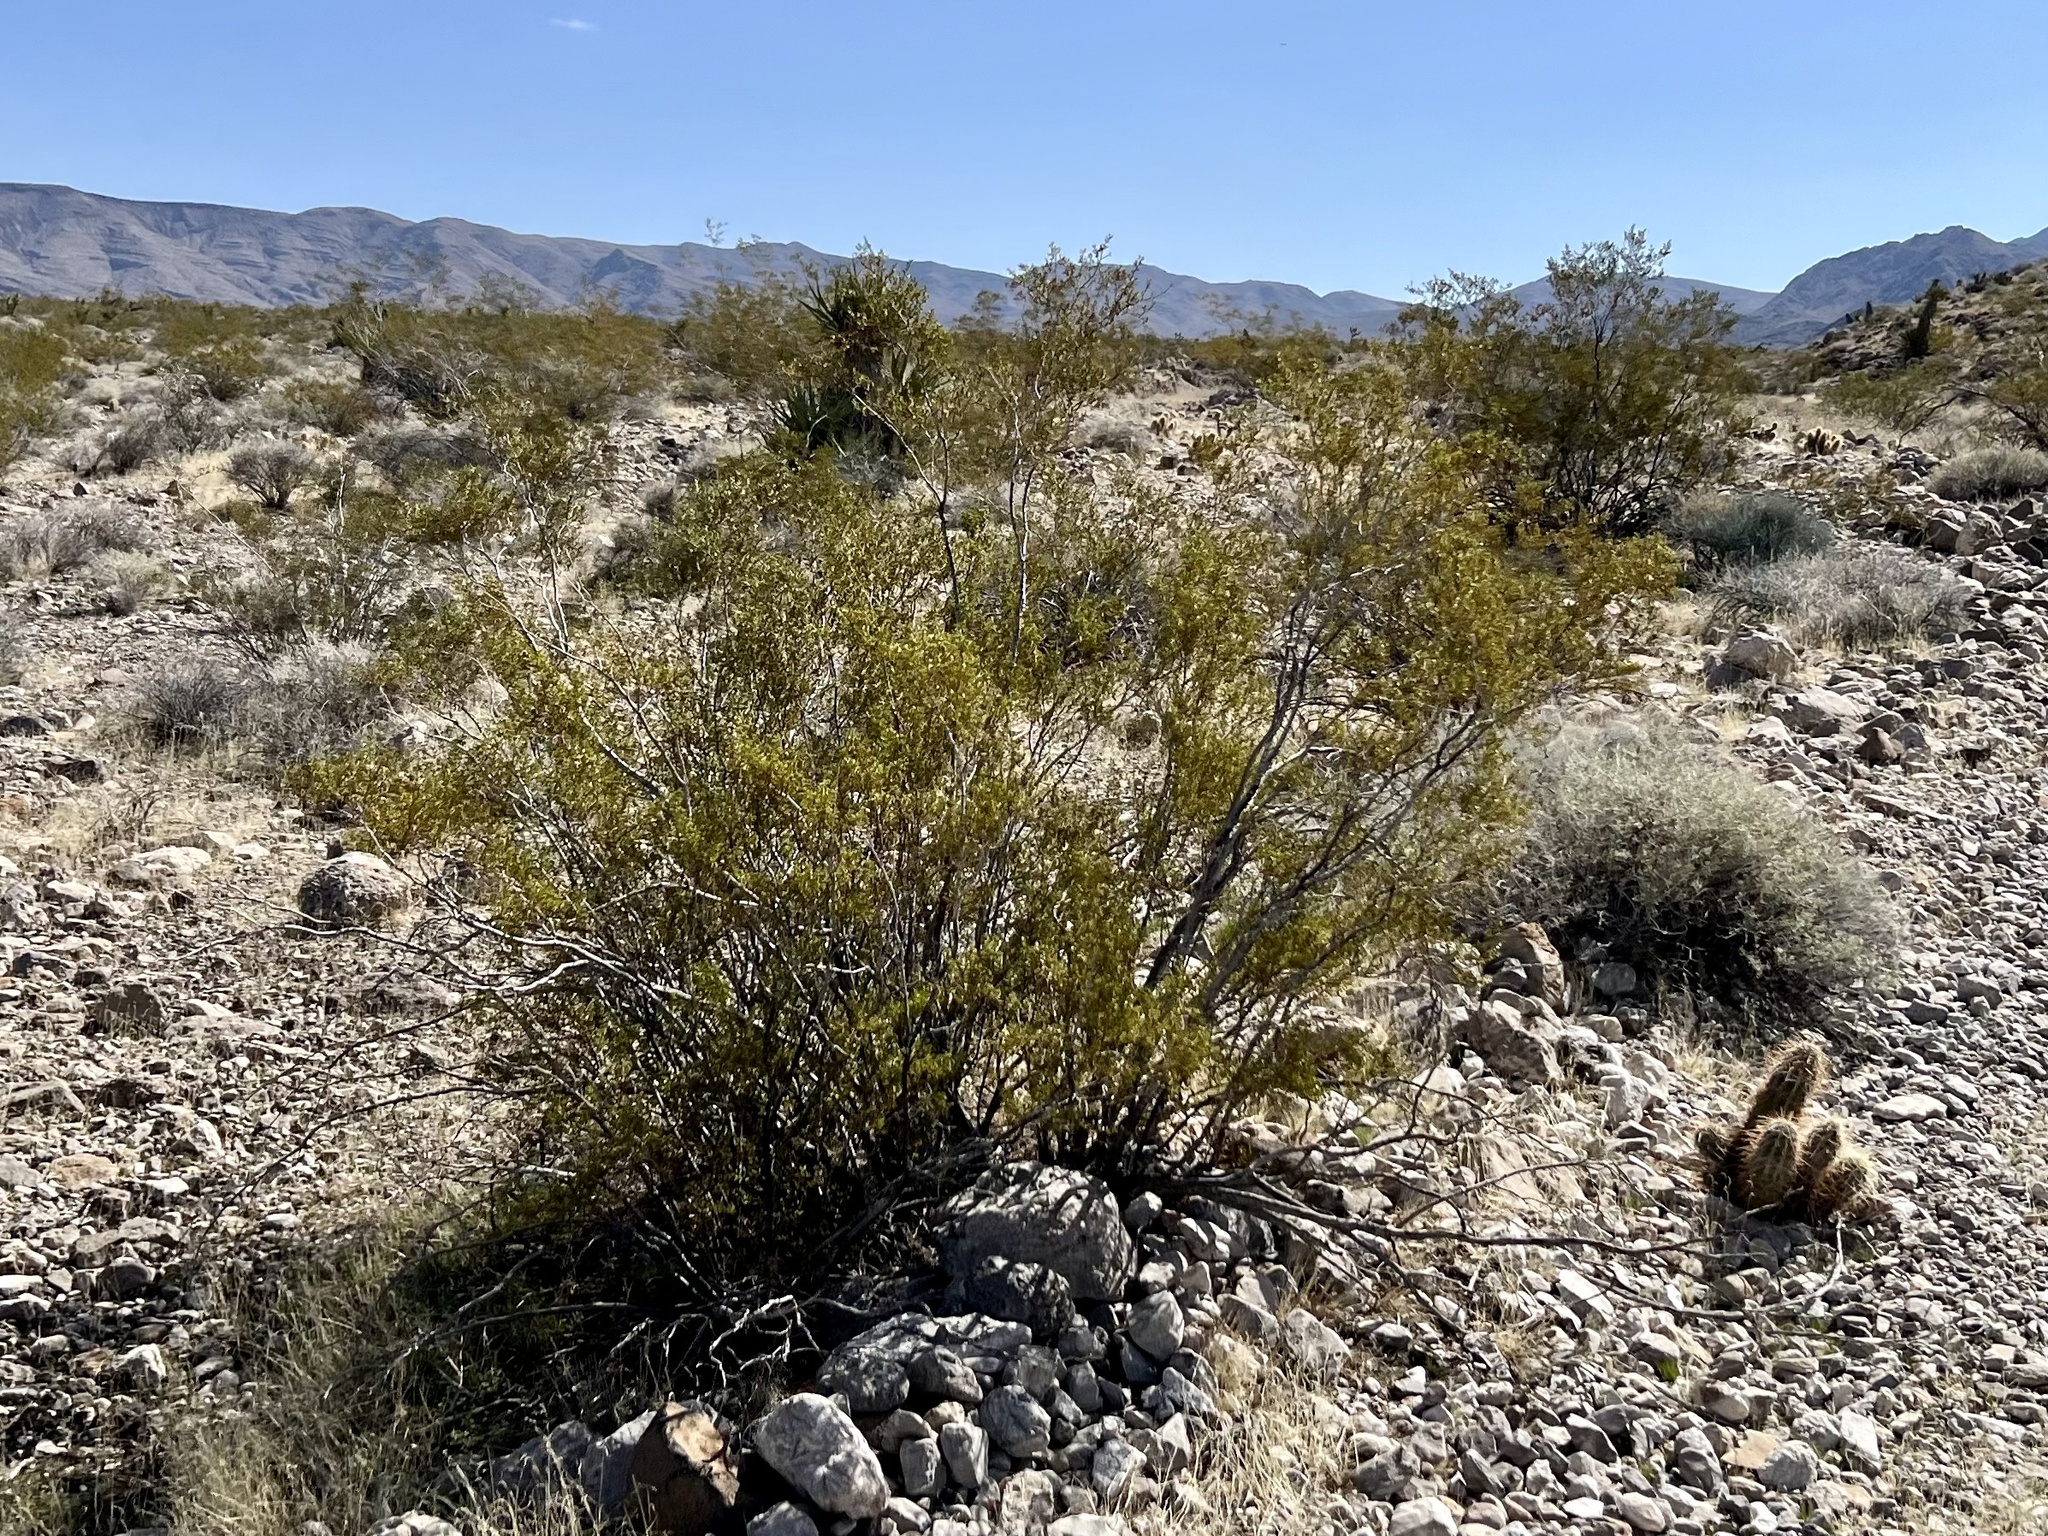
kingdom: Plantae
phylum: Tracheophyta
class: Magnoliopsida
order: Zygophyllales
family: Zygophyllaceae
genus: Larrea
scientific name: Larrea tridentata
